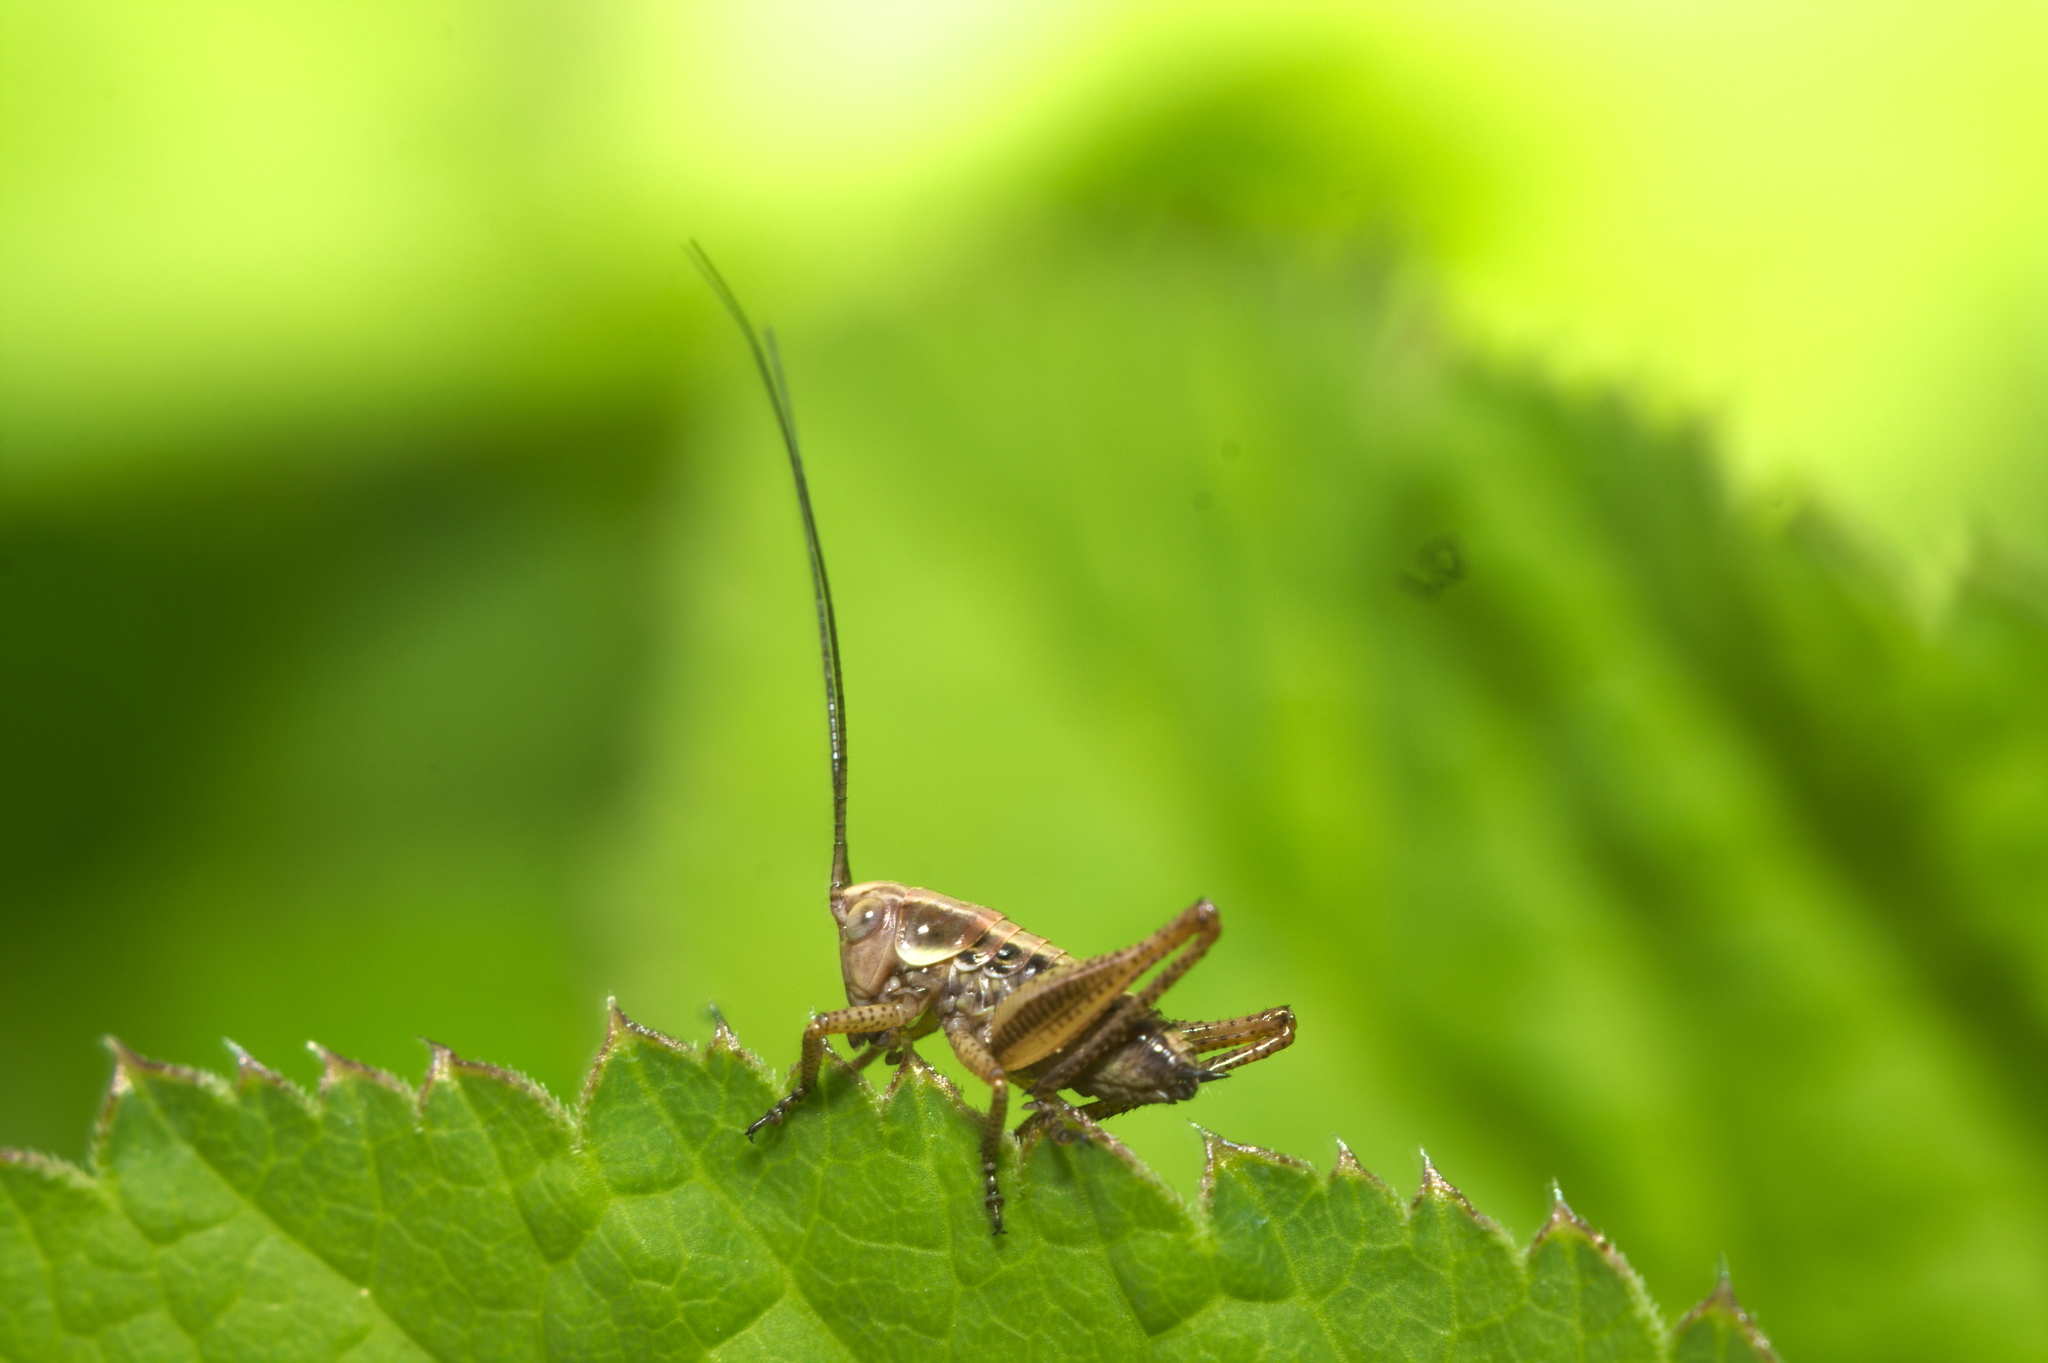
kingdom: Animalia
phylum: Arthropoda
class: Insecta
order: Orthoptera
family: Tettigoniidae
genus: Roeseliana
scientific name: Roeseliana roeselii
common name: Roesel's bush cricket
